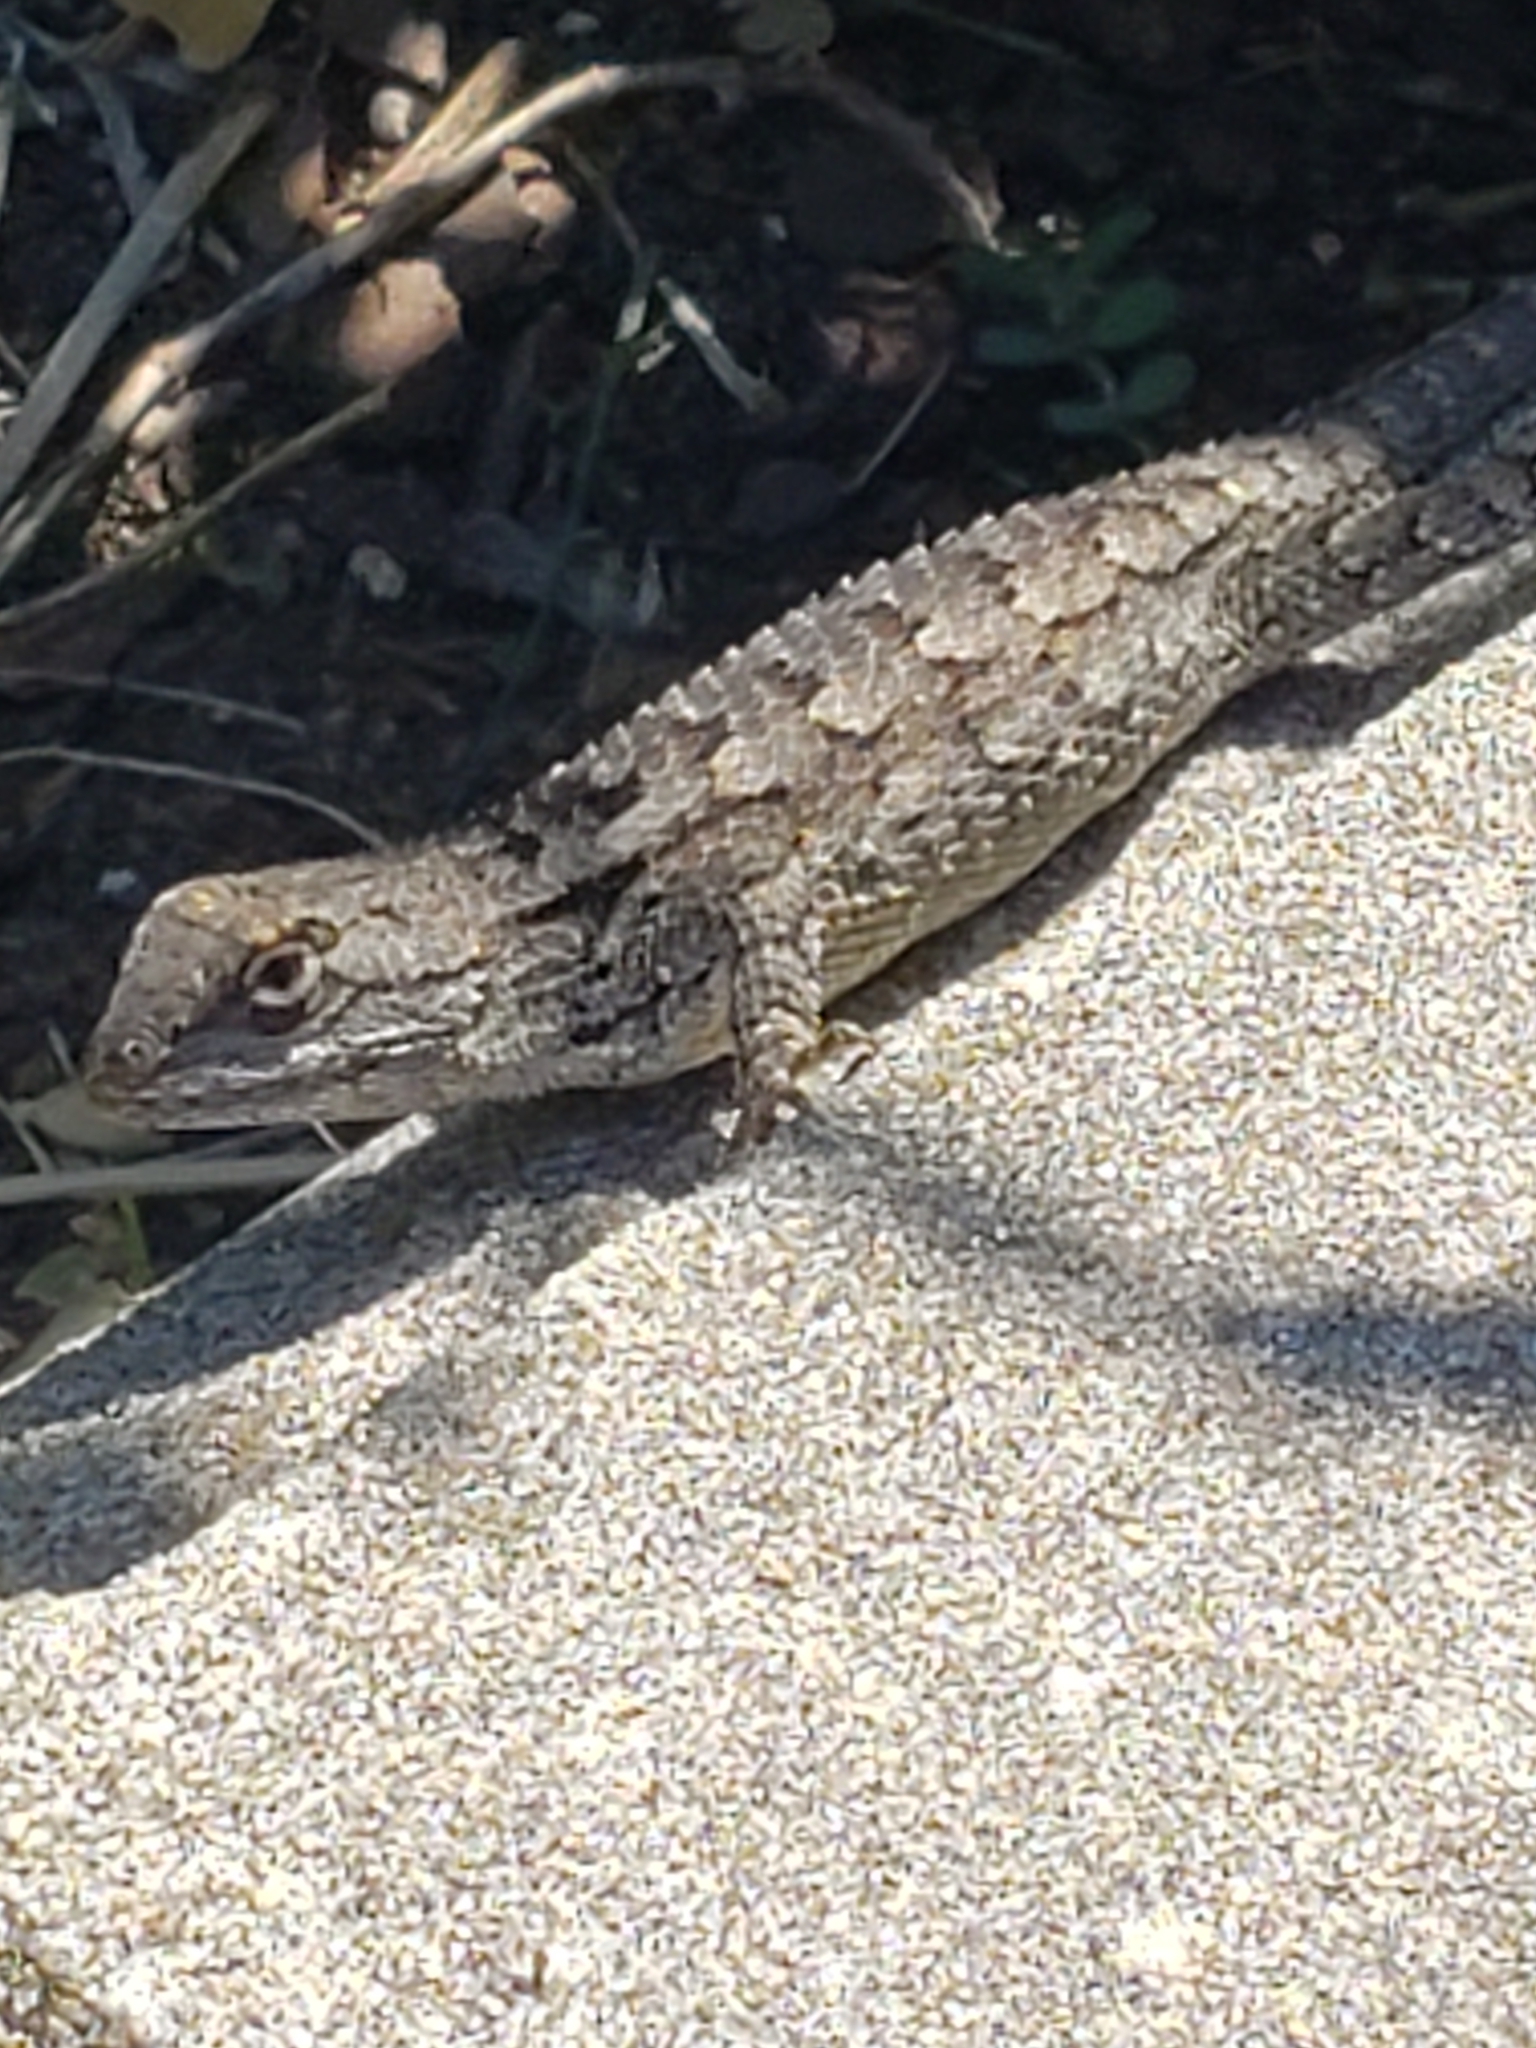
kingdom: Animalia
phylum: Chordata
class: Squamata
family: Phrynosomatidae
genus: Sceloporus
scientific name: Sceloporus olivaceus
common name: Texas spiny lizard
